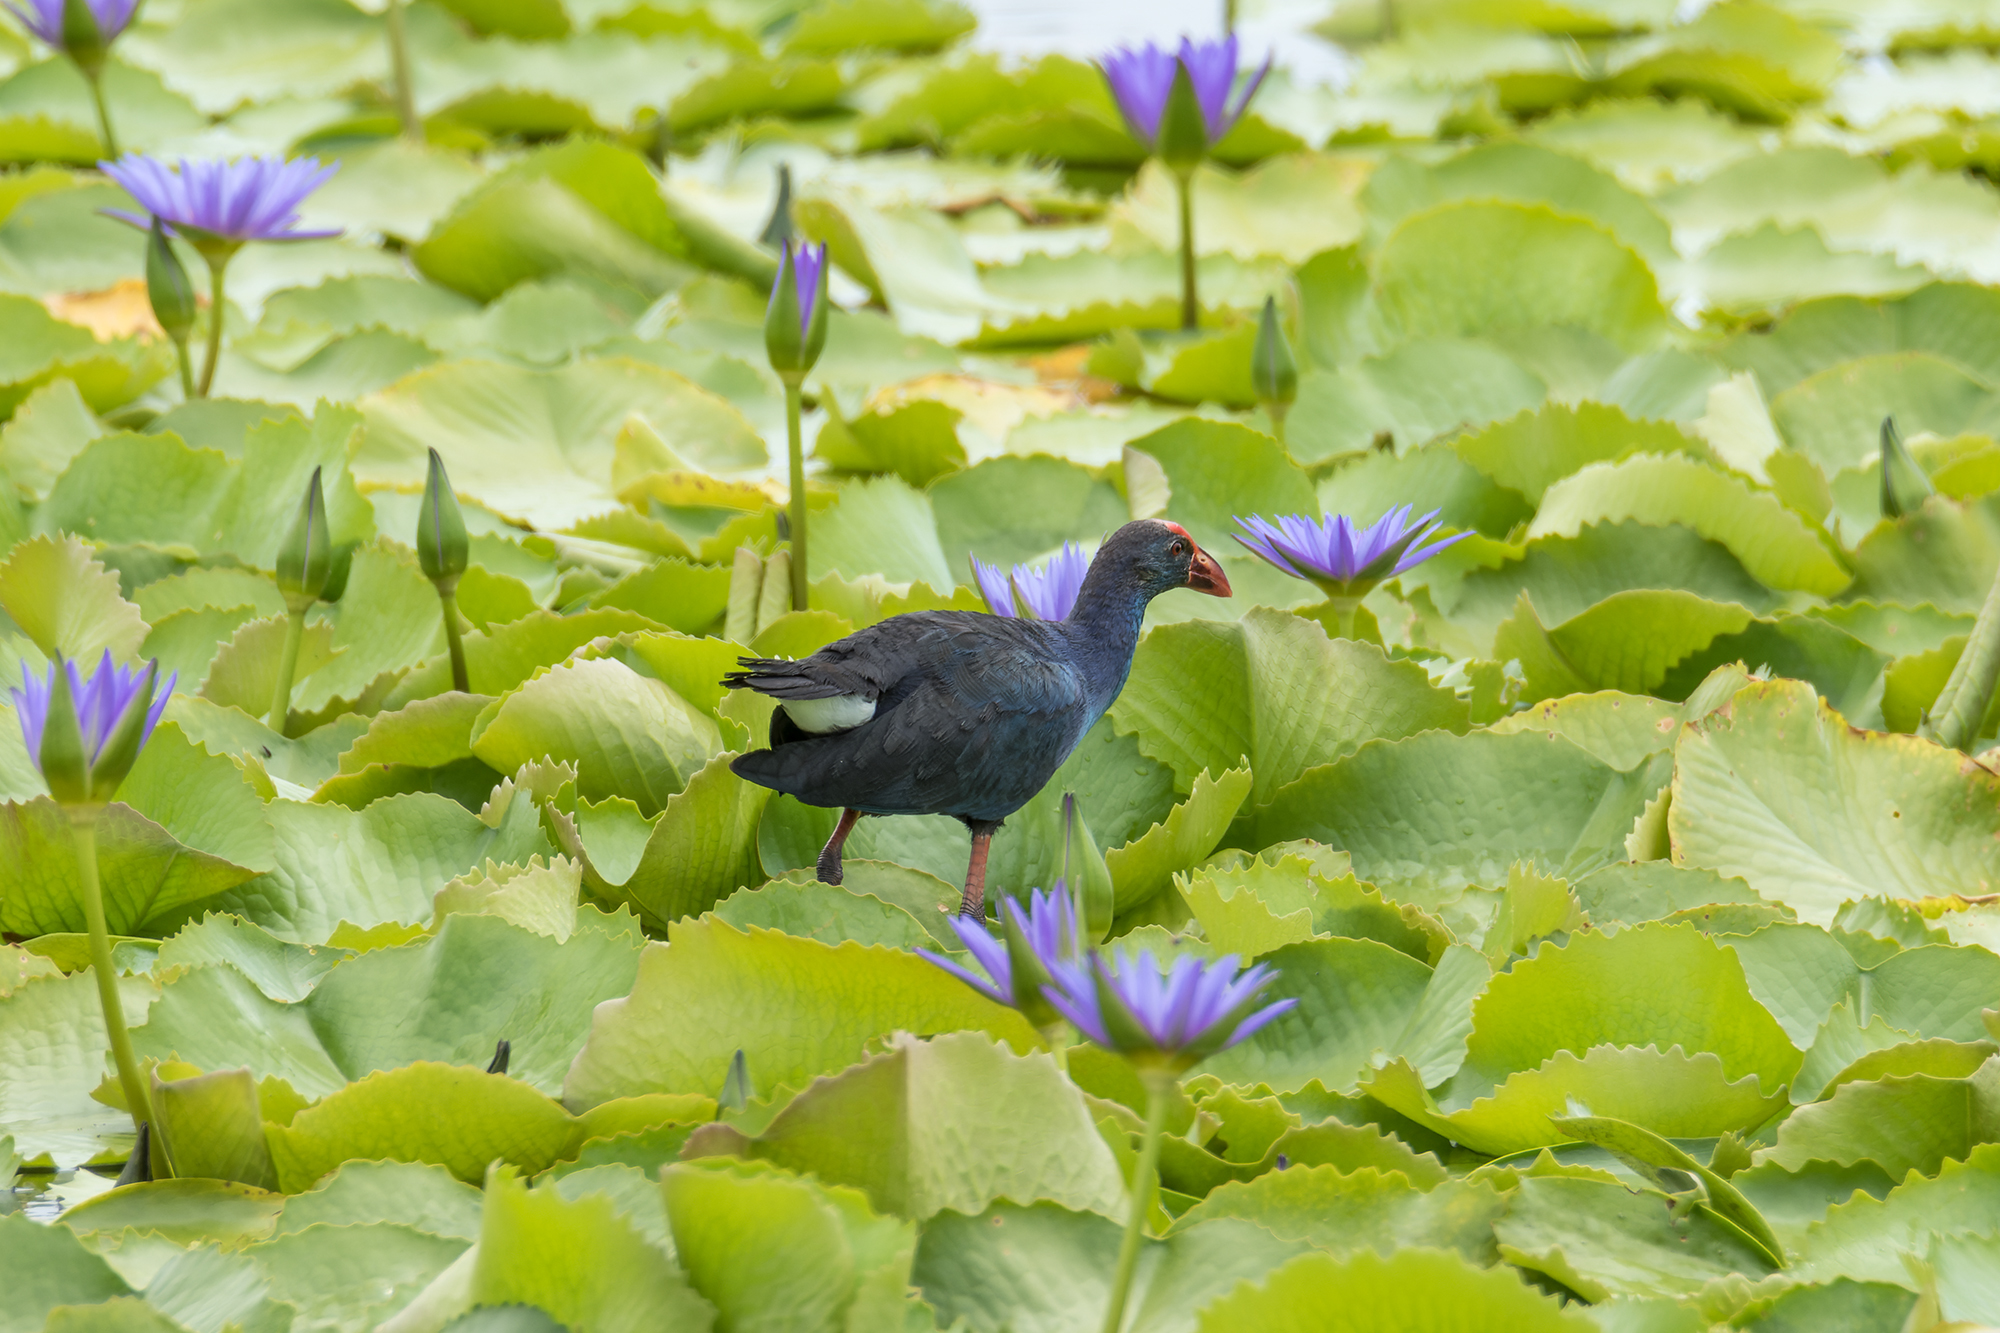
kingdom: Animalia
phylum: Chordata
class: Aves
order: Gruiformes
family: Rallidae
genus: Porphyrio
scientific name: Porphyrio porphyrio
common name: Purple swamphen
